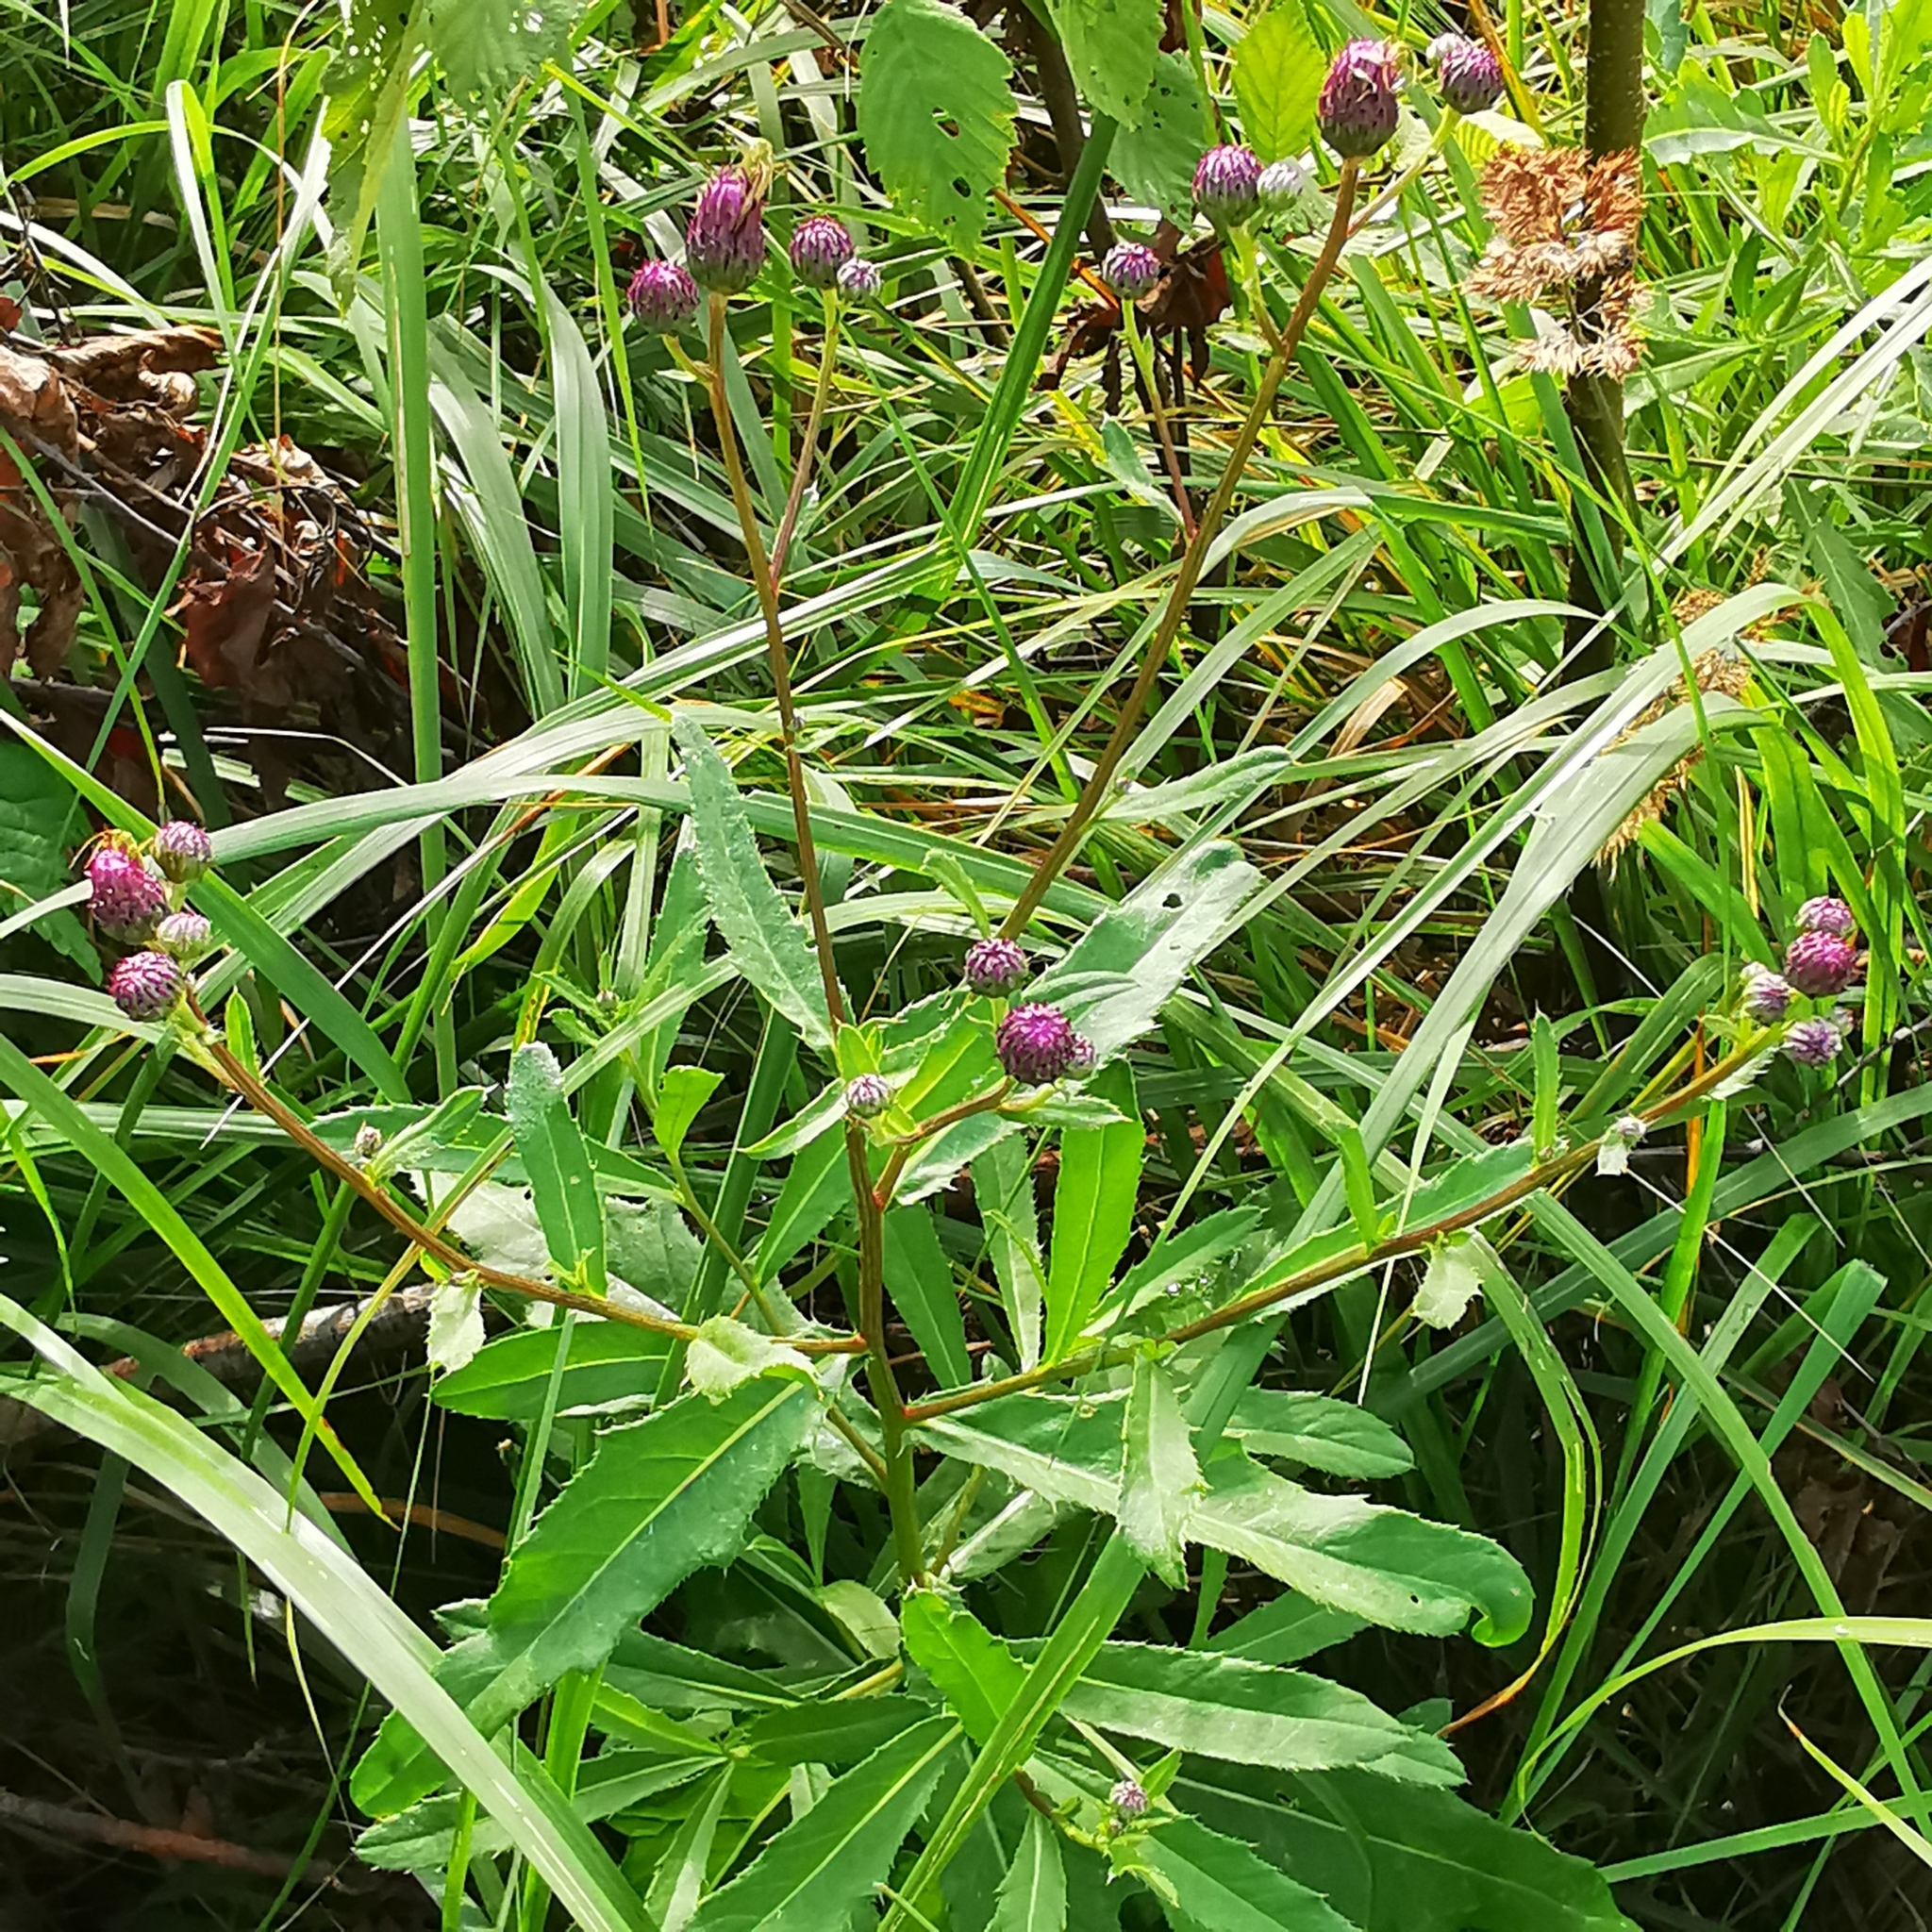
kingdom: Plantae
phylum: Tracheophyta
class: Magnoliopsida
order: Asterales
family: Asteraceae
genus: Cirsium
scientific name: Cirsium arvense
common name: Creeping thistle
